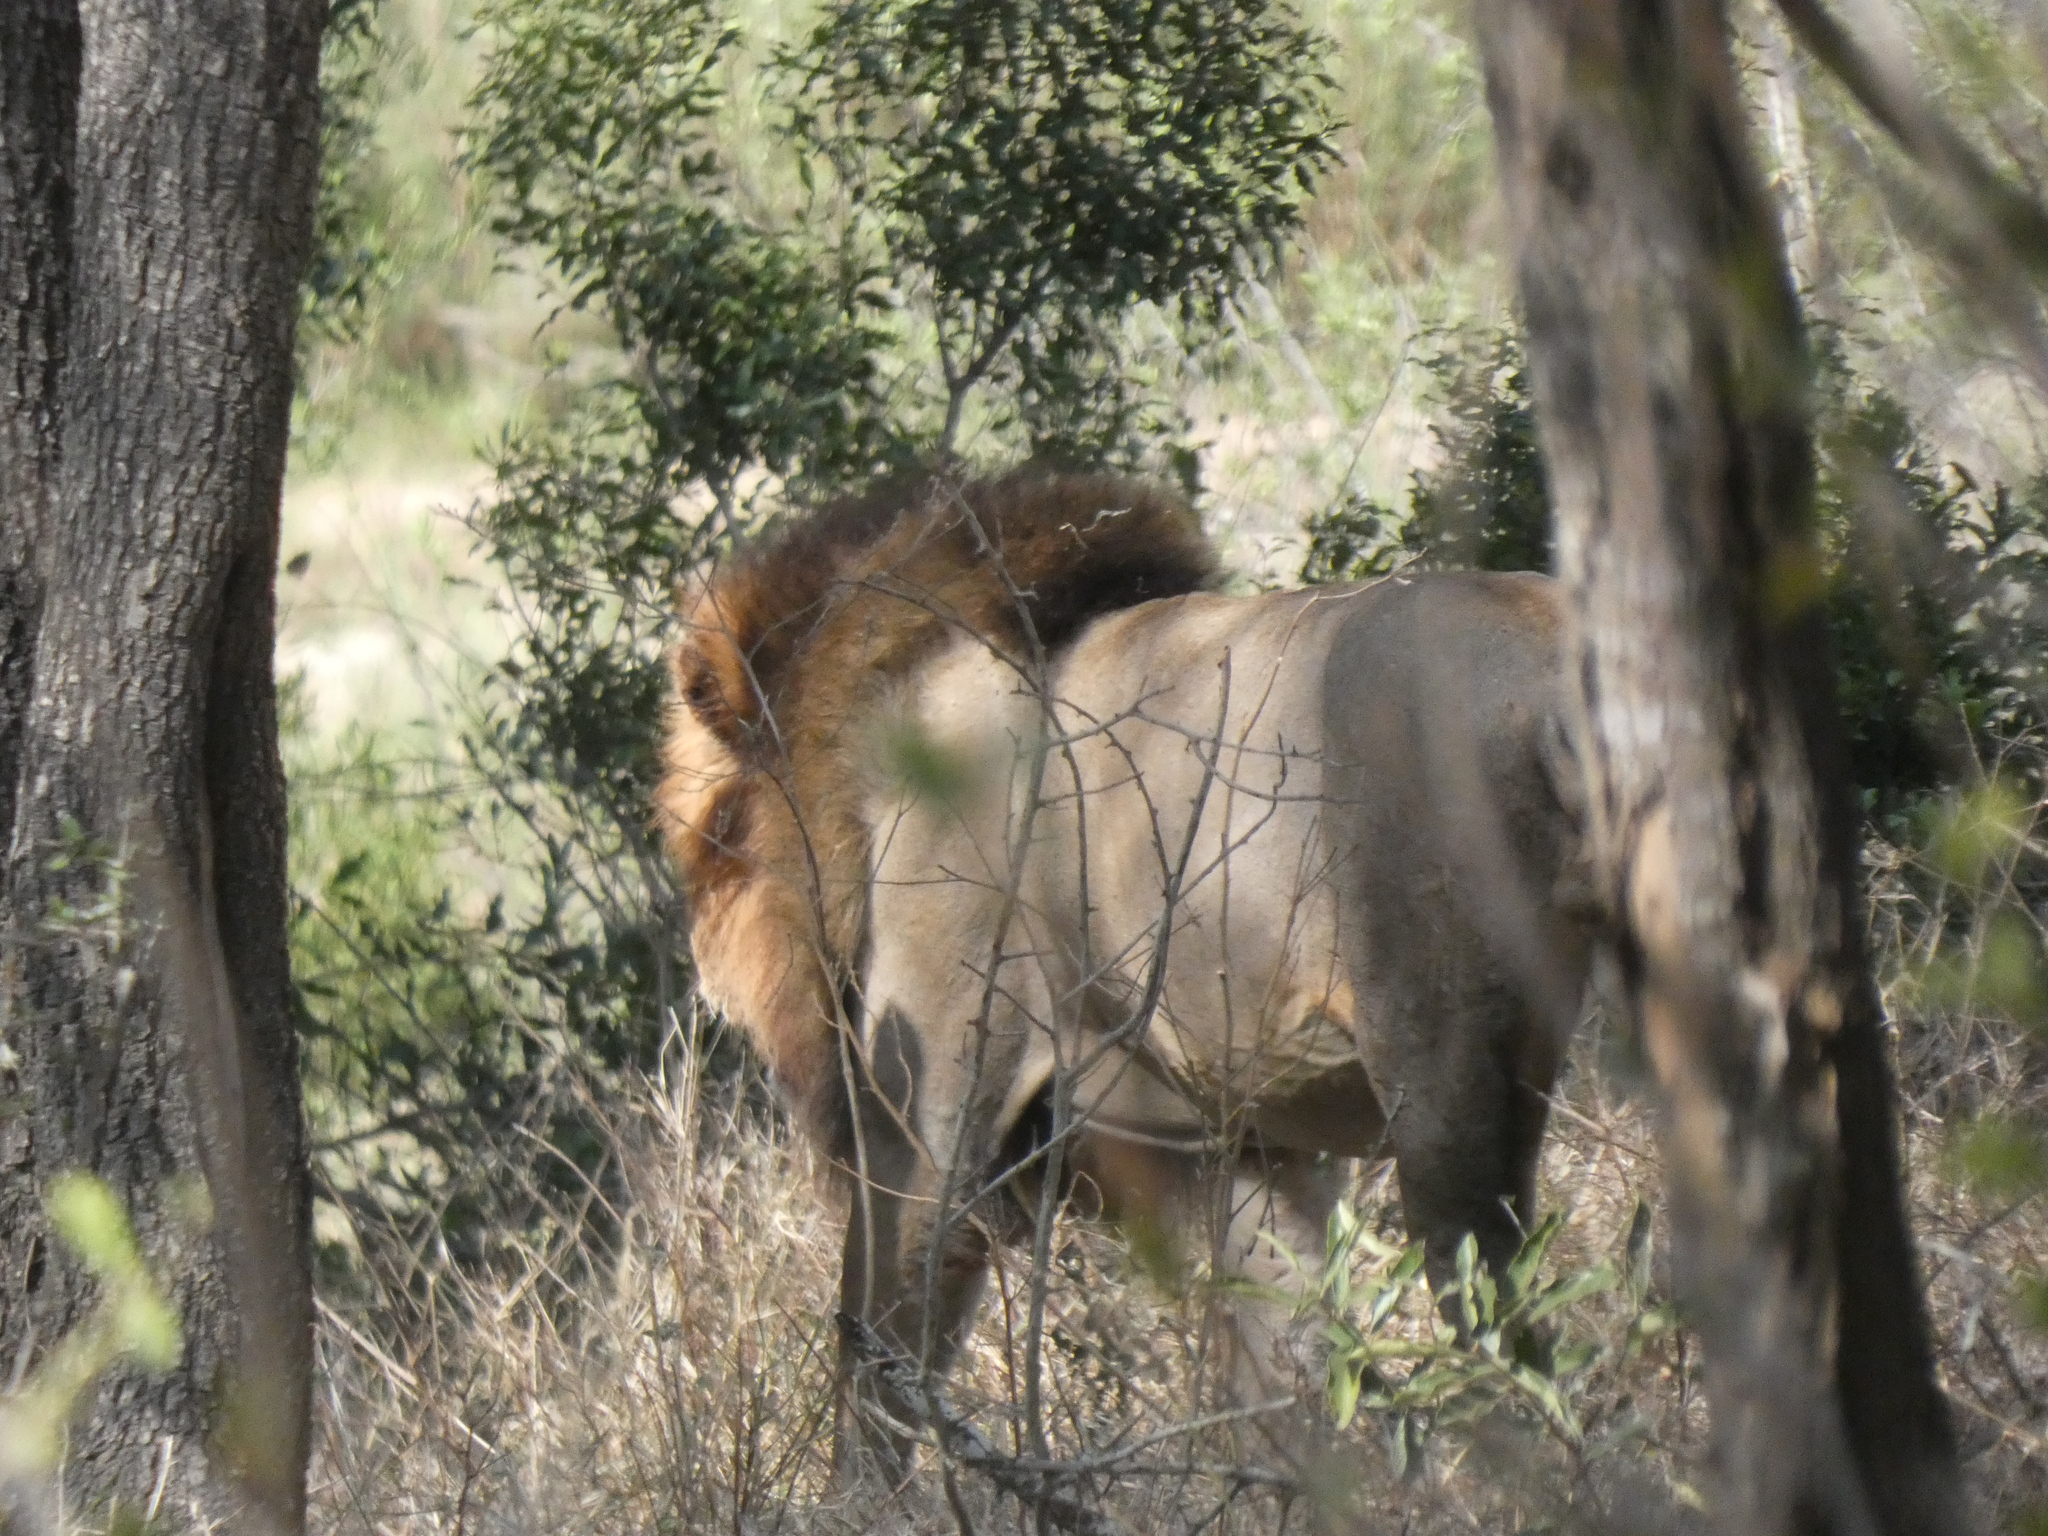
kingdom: Animalia
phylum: Chordata
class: Mammalia
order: Carnivora
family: Felidae
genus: Panthera
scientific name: Panthera leo
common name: Lion
